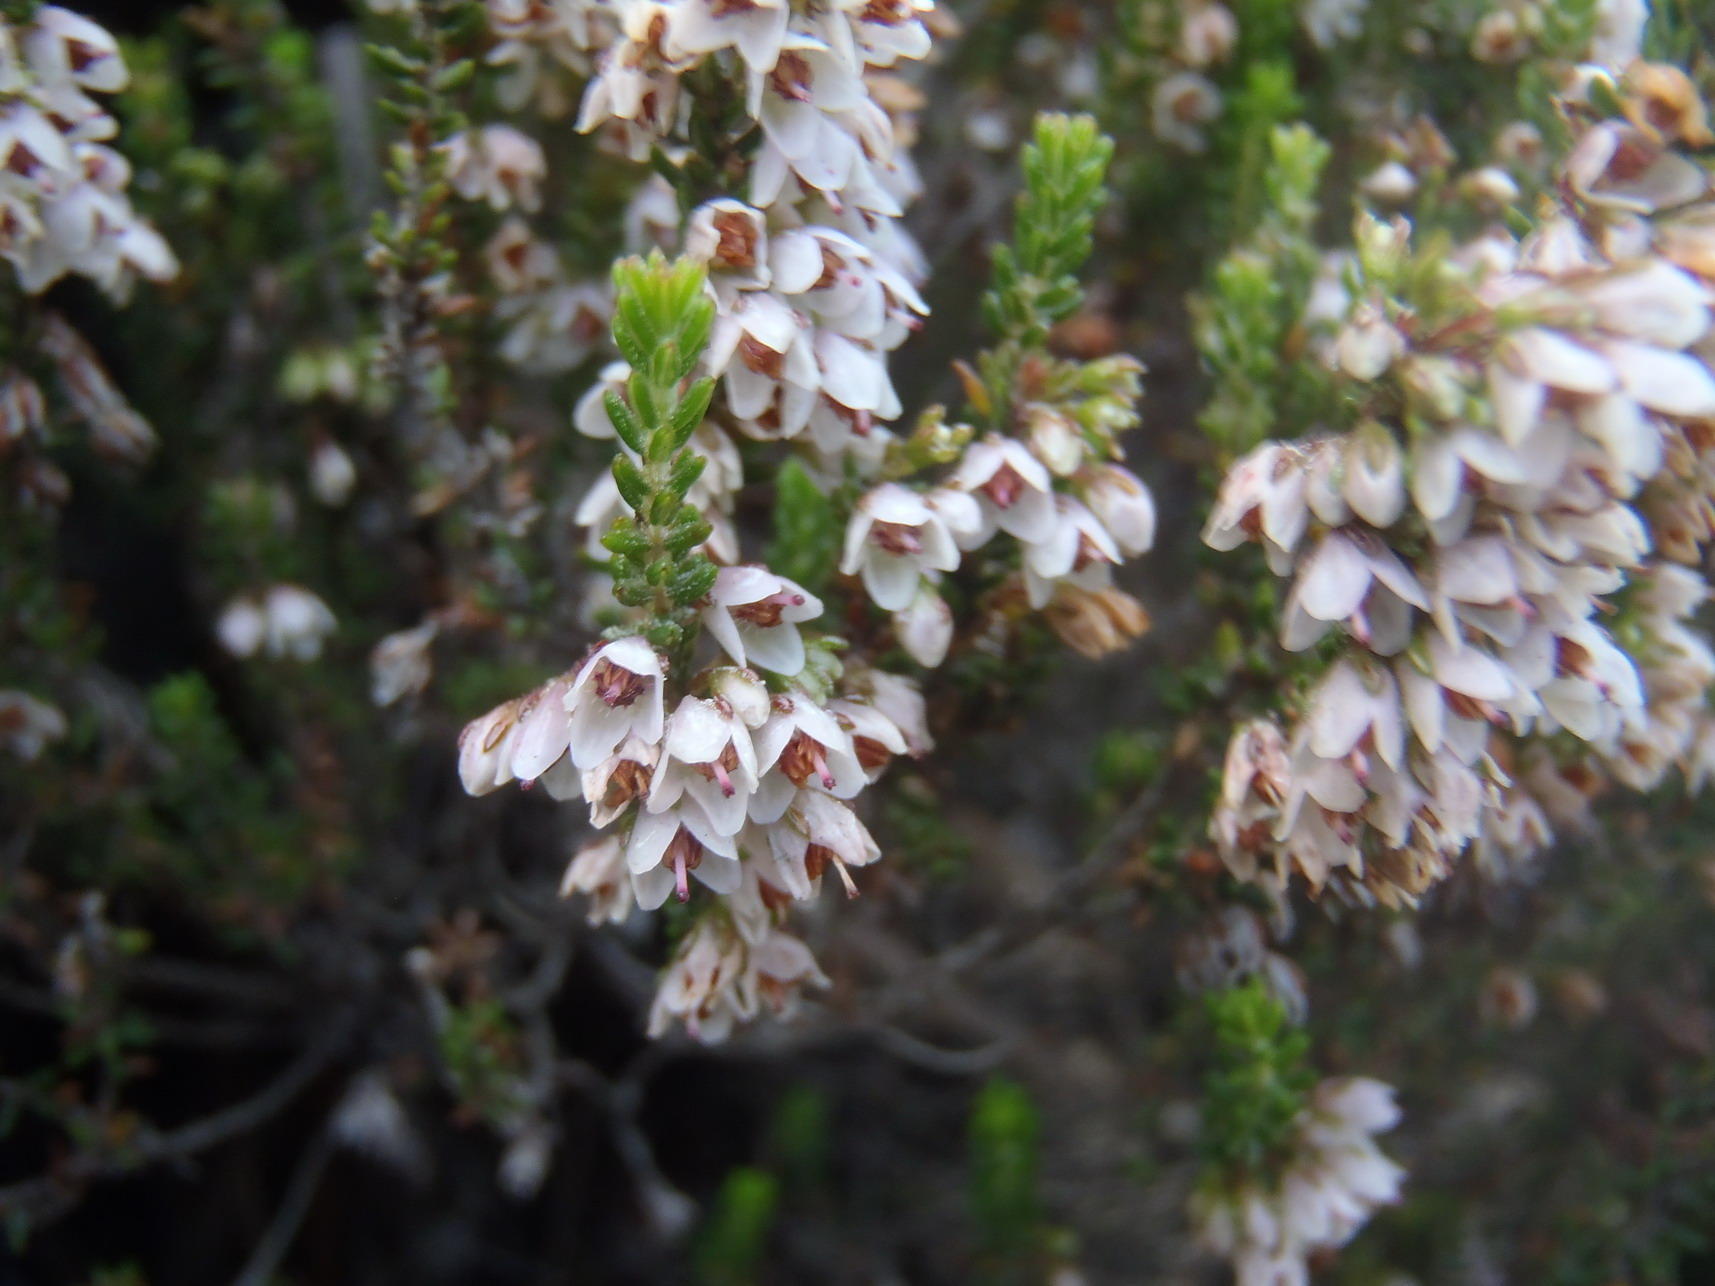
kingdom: Plantae
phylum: Tracheophyta
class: Magnoliopsida
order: Ericales
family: Ericaceae
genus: Erica
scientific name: Erica deflexa
